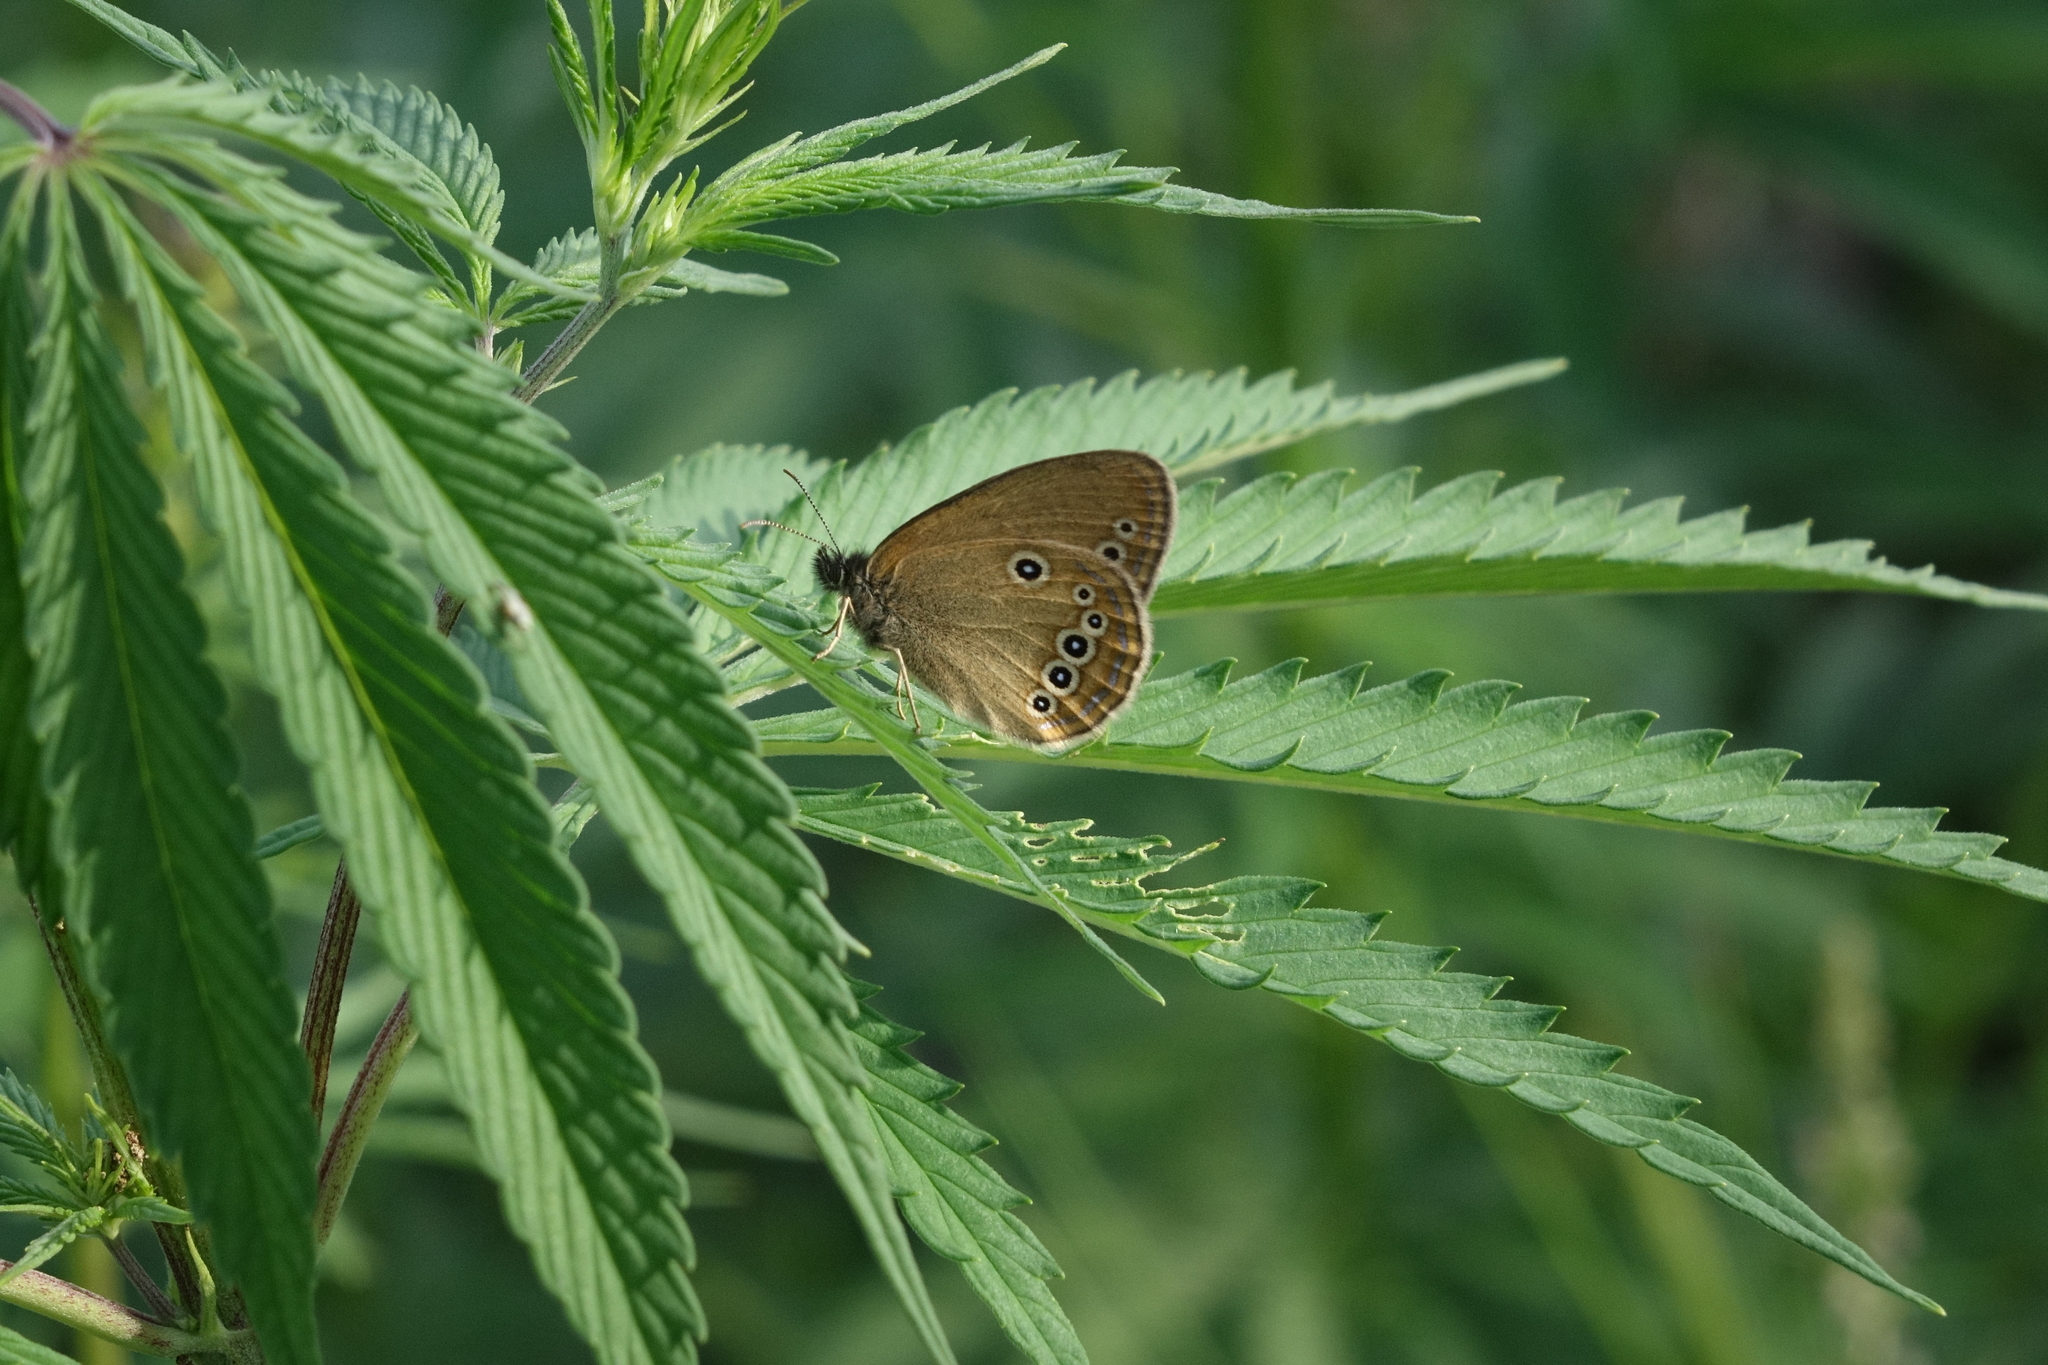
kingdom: Animalia
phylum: Arthropoda
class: Insecta
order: Lepidoptera
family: Nymphalidae
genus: Coenonympha
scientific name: Coenonympha oedippus
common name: False ringlet
